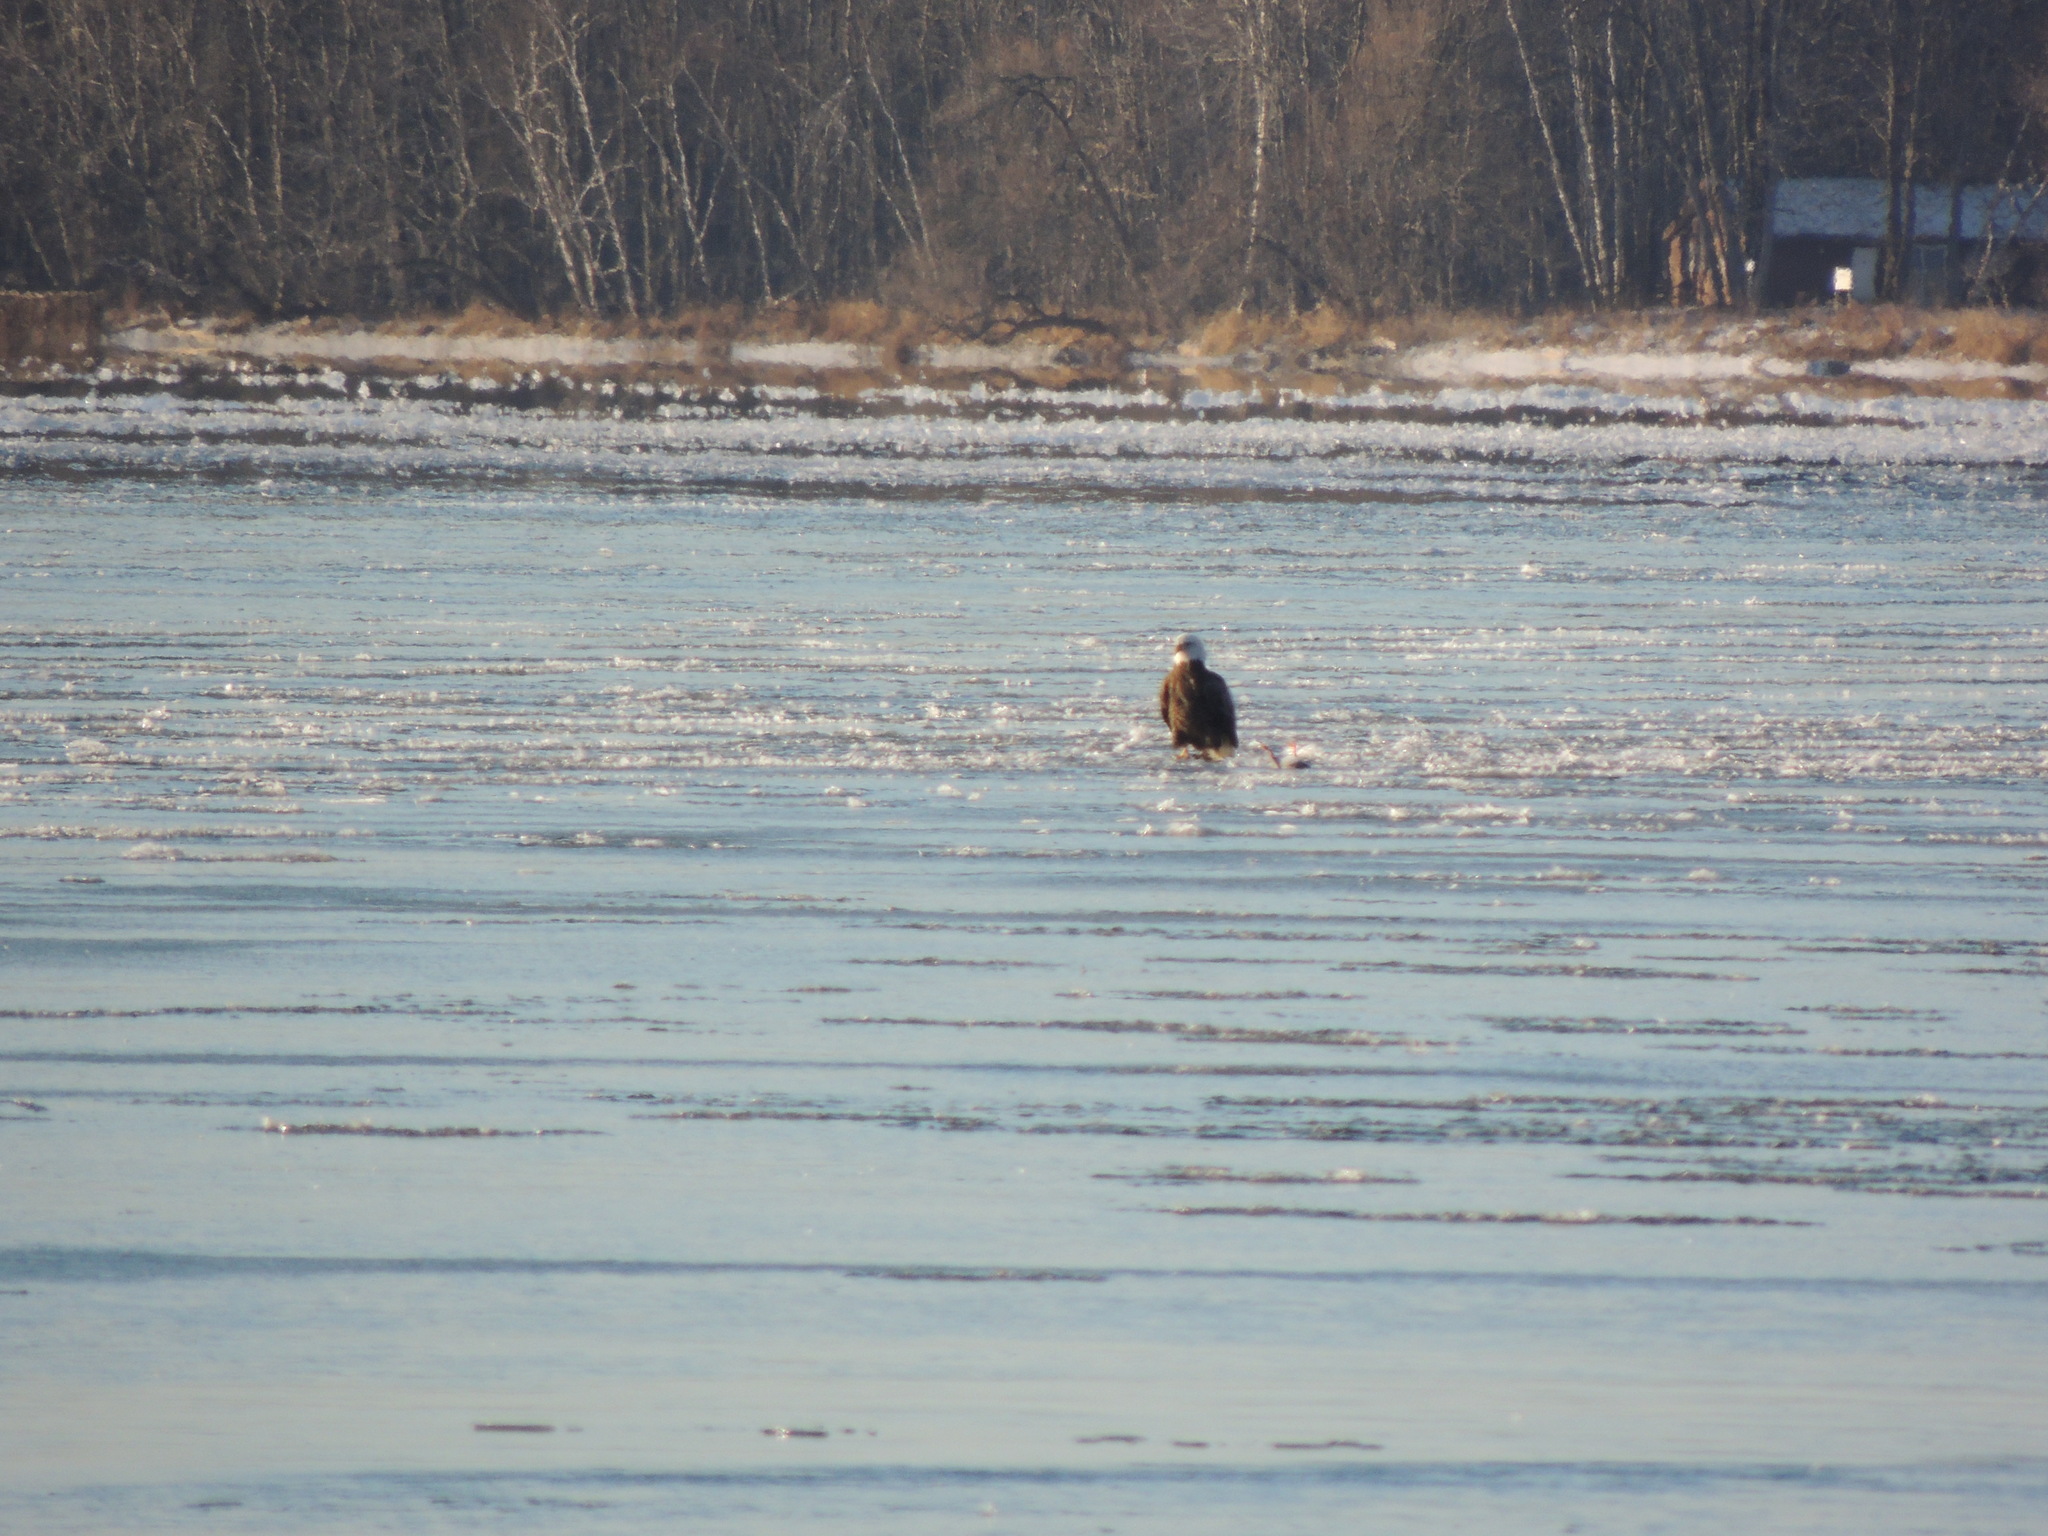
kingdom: Animalia
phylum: Chordata
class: Aves
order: Accipitriformes
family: Accipitridae
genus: Haliaeetus
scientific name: Haliaeetus leucocephalus
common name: Bald eagle
